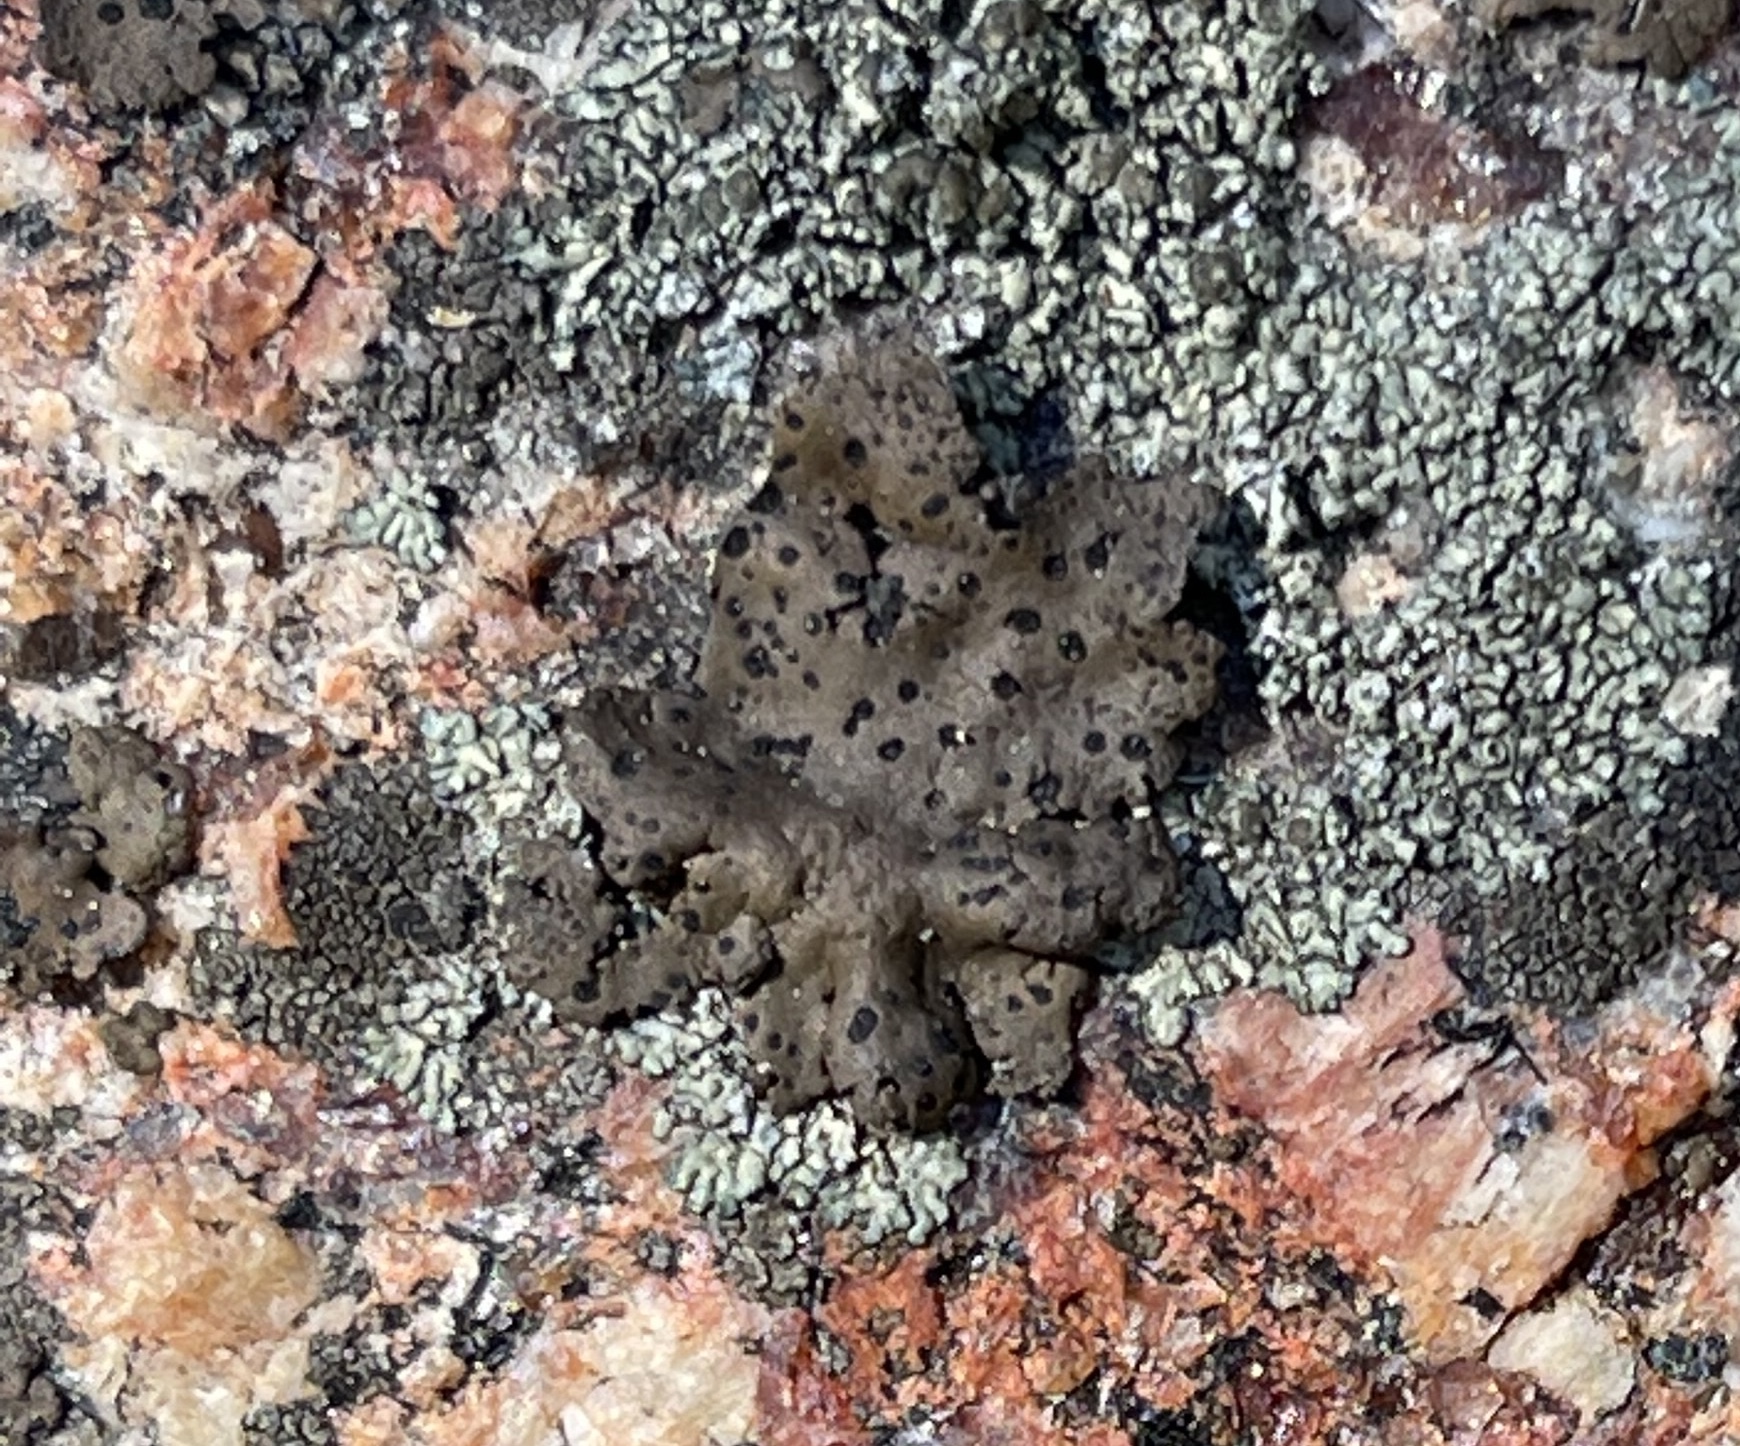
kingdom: Fungi
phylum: Ascomycota
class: Lecanoromycetes
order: Umbilicariales
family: Umbilicariaceae
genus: Umbilicaria
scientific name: Umbilicaria phaea
